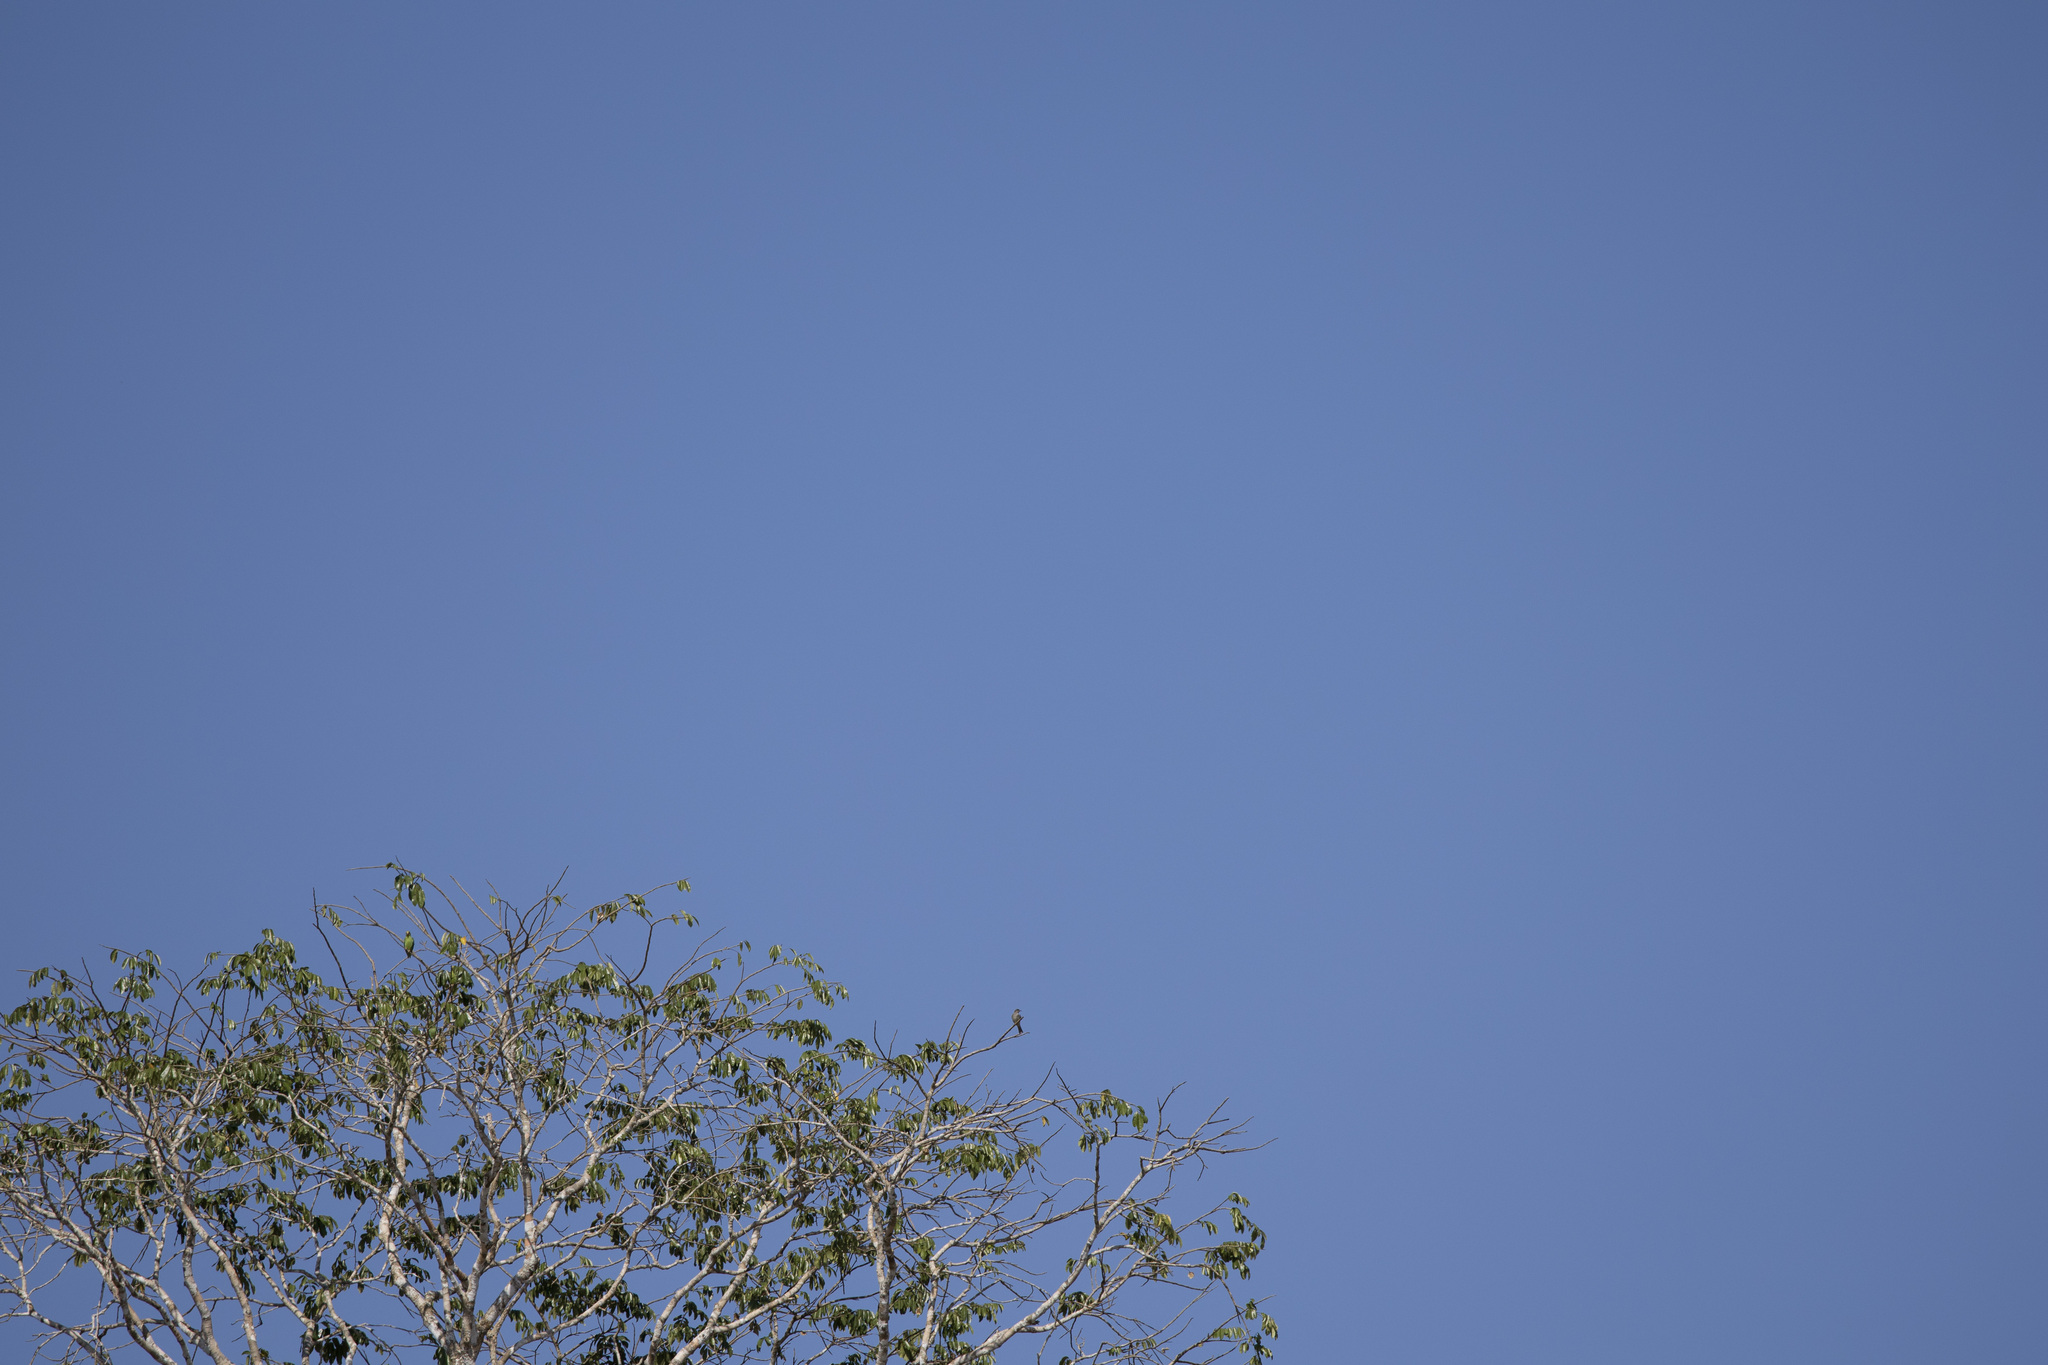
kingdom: Animalia
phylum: Chordata
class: Aves
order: Passeriformes
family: Tyrannidae
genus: Empidonomus
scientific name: Empidonomus aurantioatrocristatus
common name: Crowned slaty flycatcher
